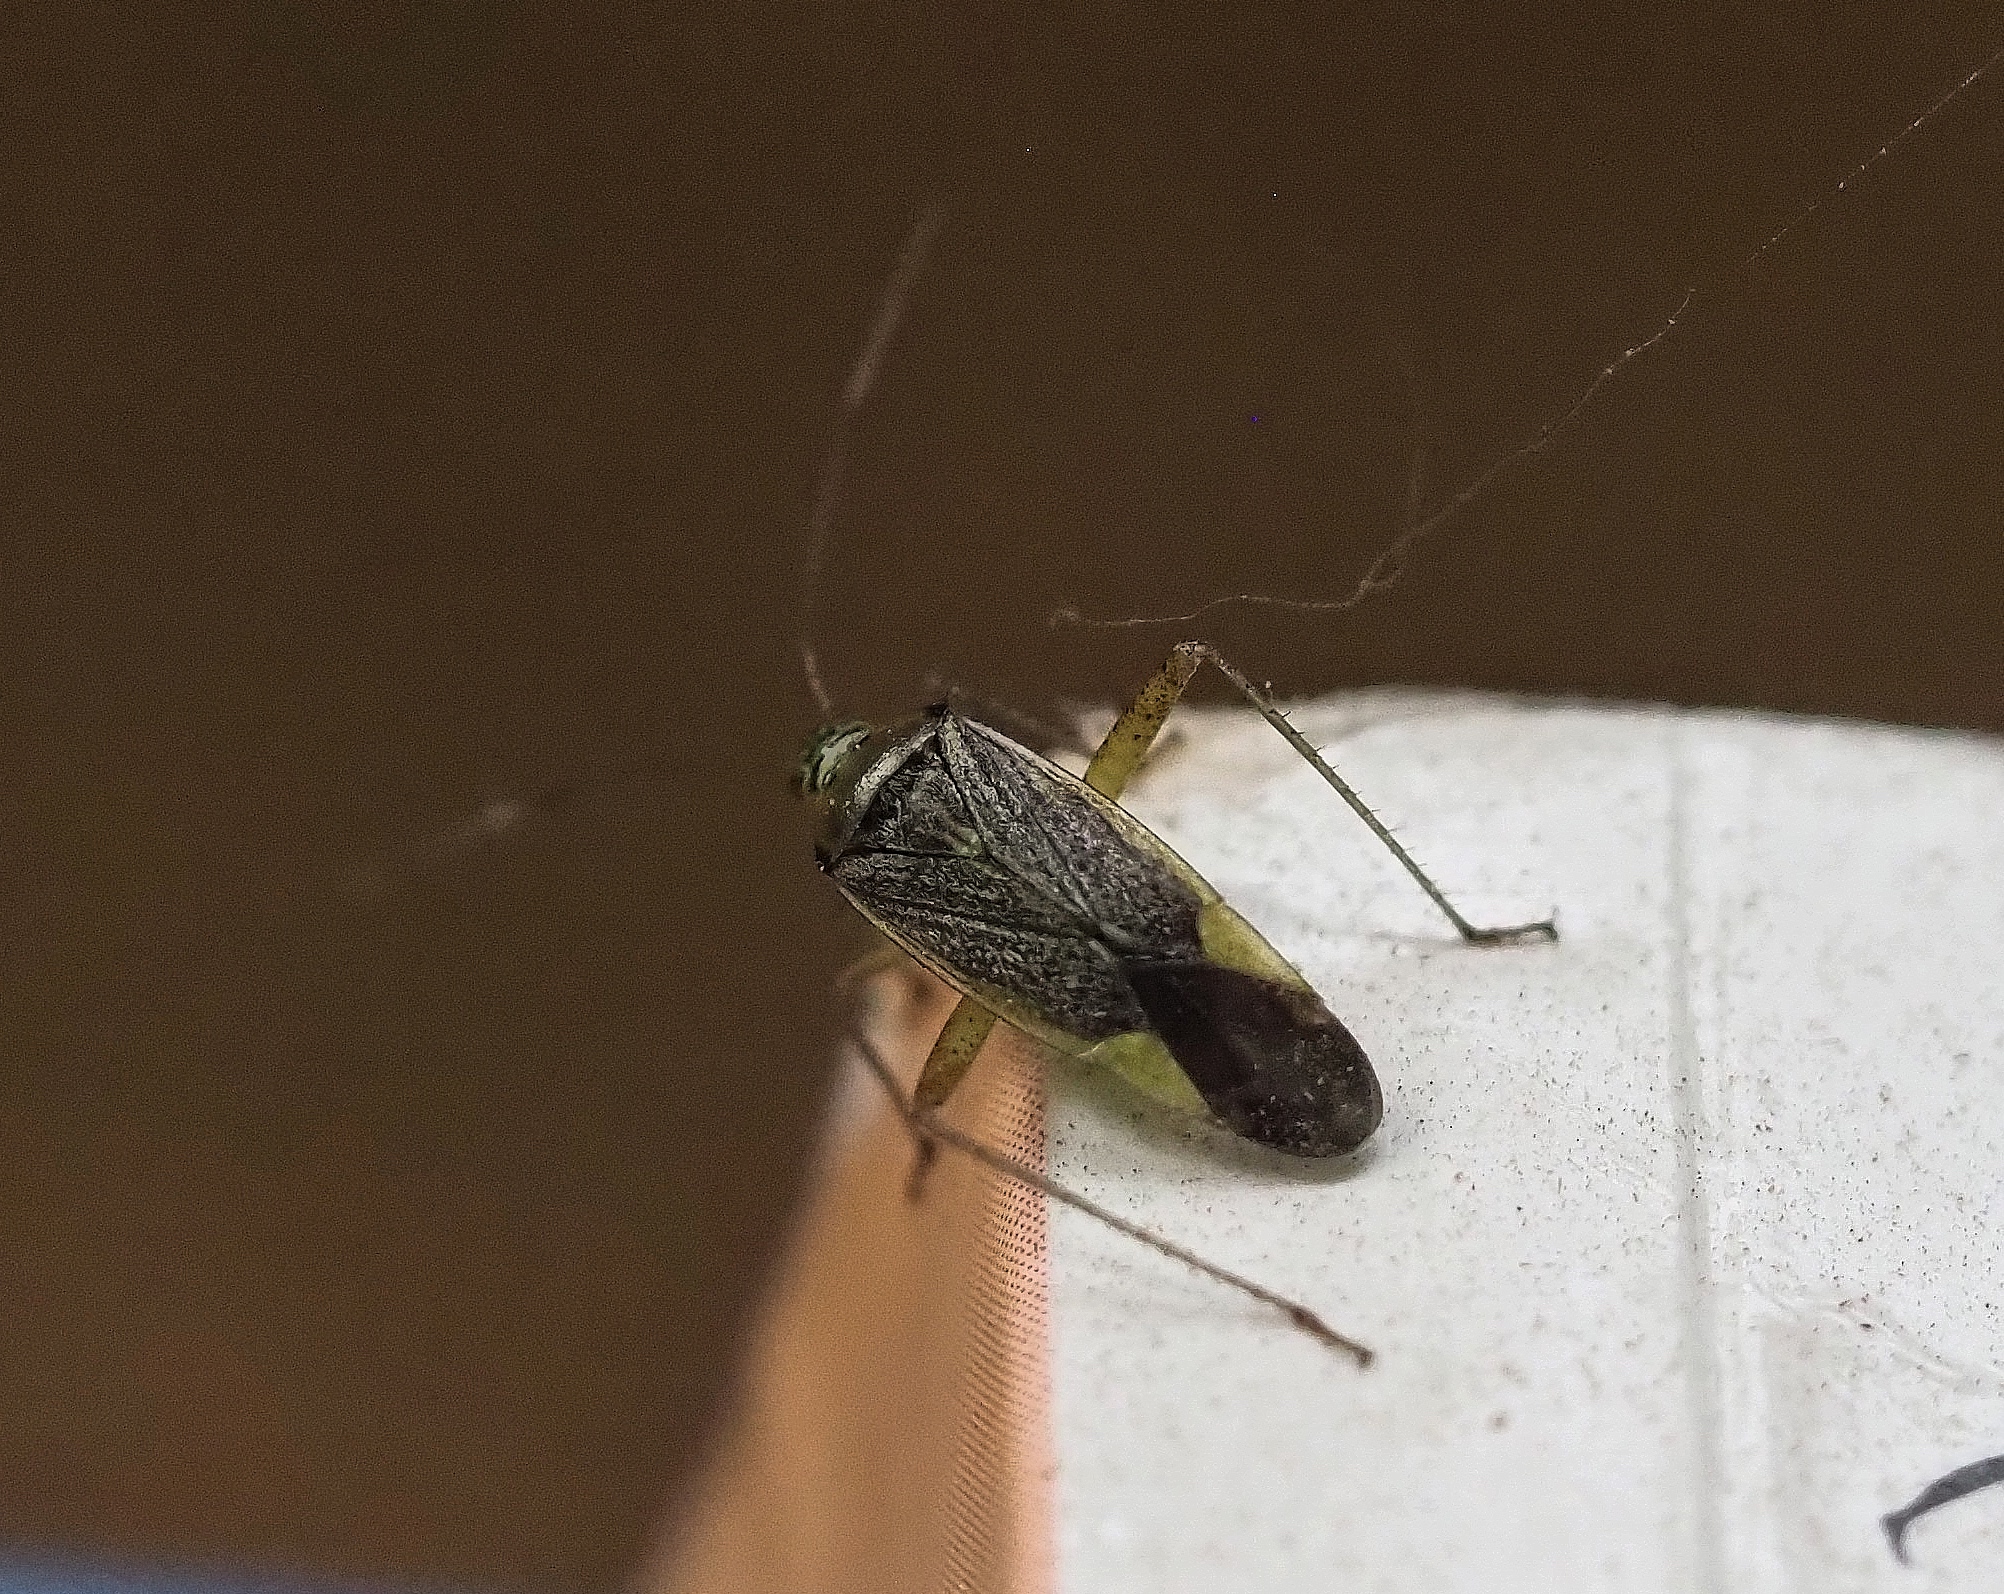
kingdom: Animalia
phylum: Arthropoda
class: Insecta
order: Hemiptera
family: Miridae
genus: Closterotomus
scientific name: Closterotomus trivialis
